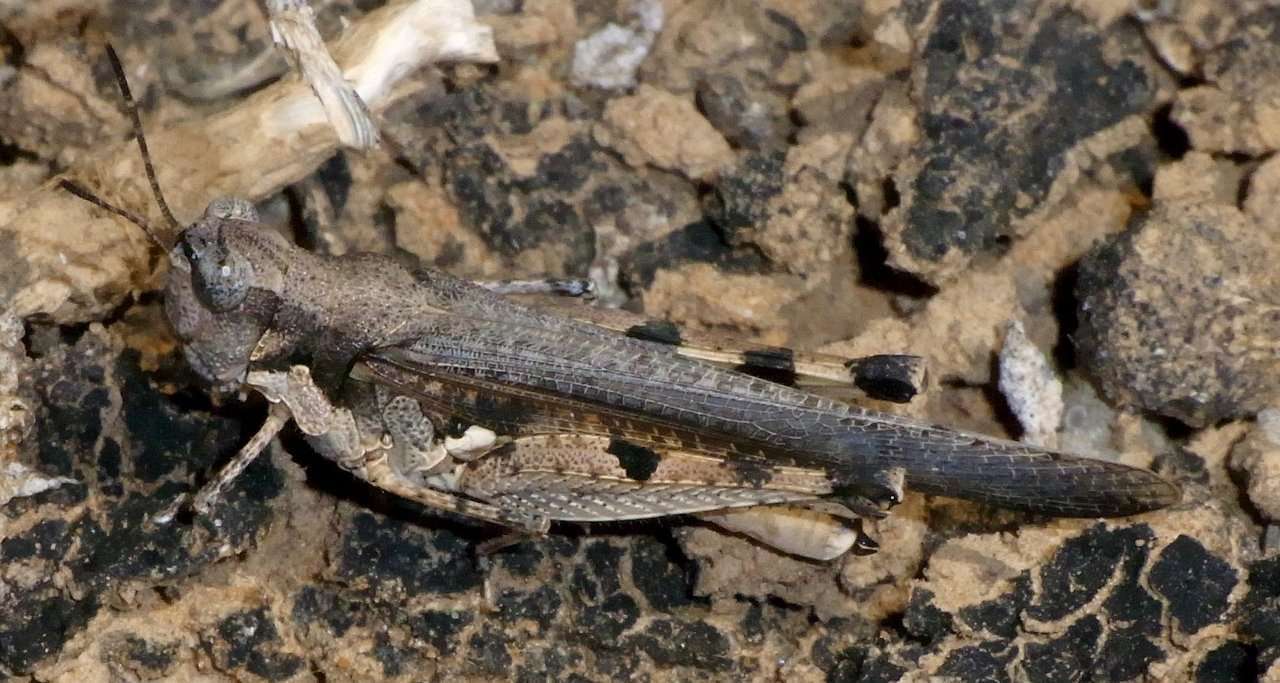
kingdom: Animalia
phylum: Arthropoda
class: Insecta
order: Orthoptera
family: Acrididae
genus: Pycnostictus
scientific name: Pycnostictus seriatus
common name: Common bandwing
